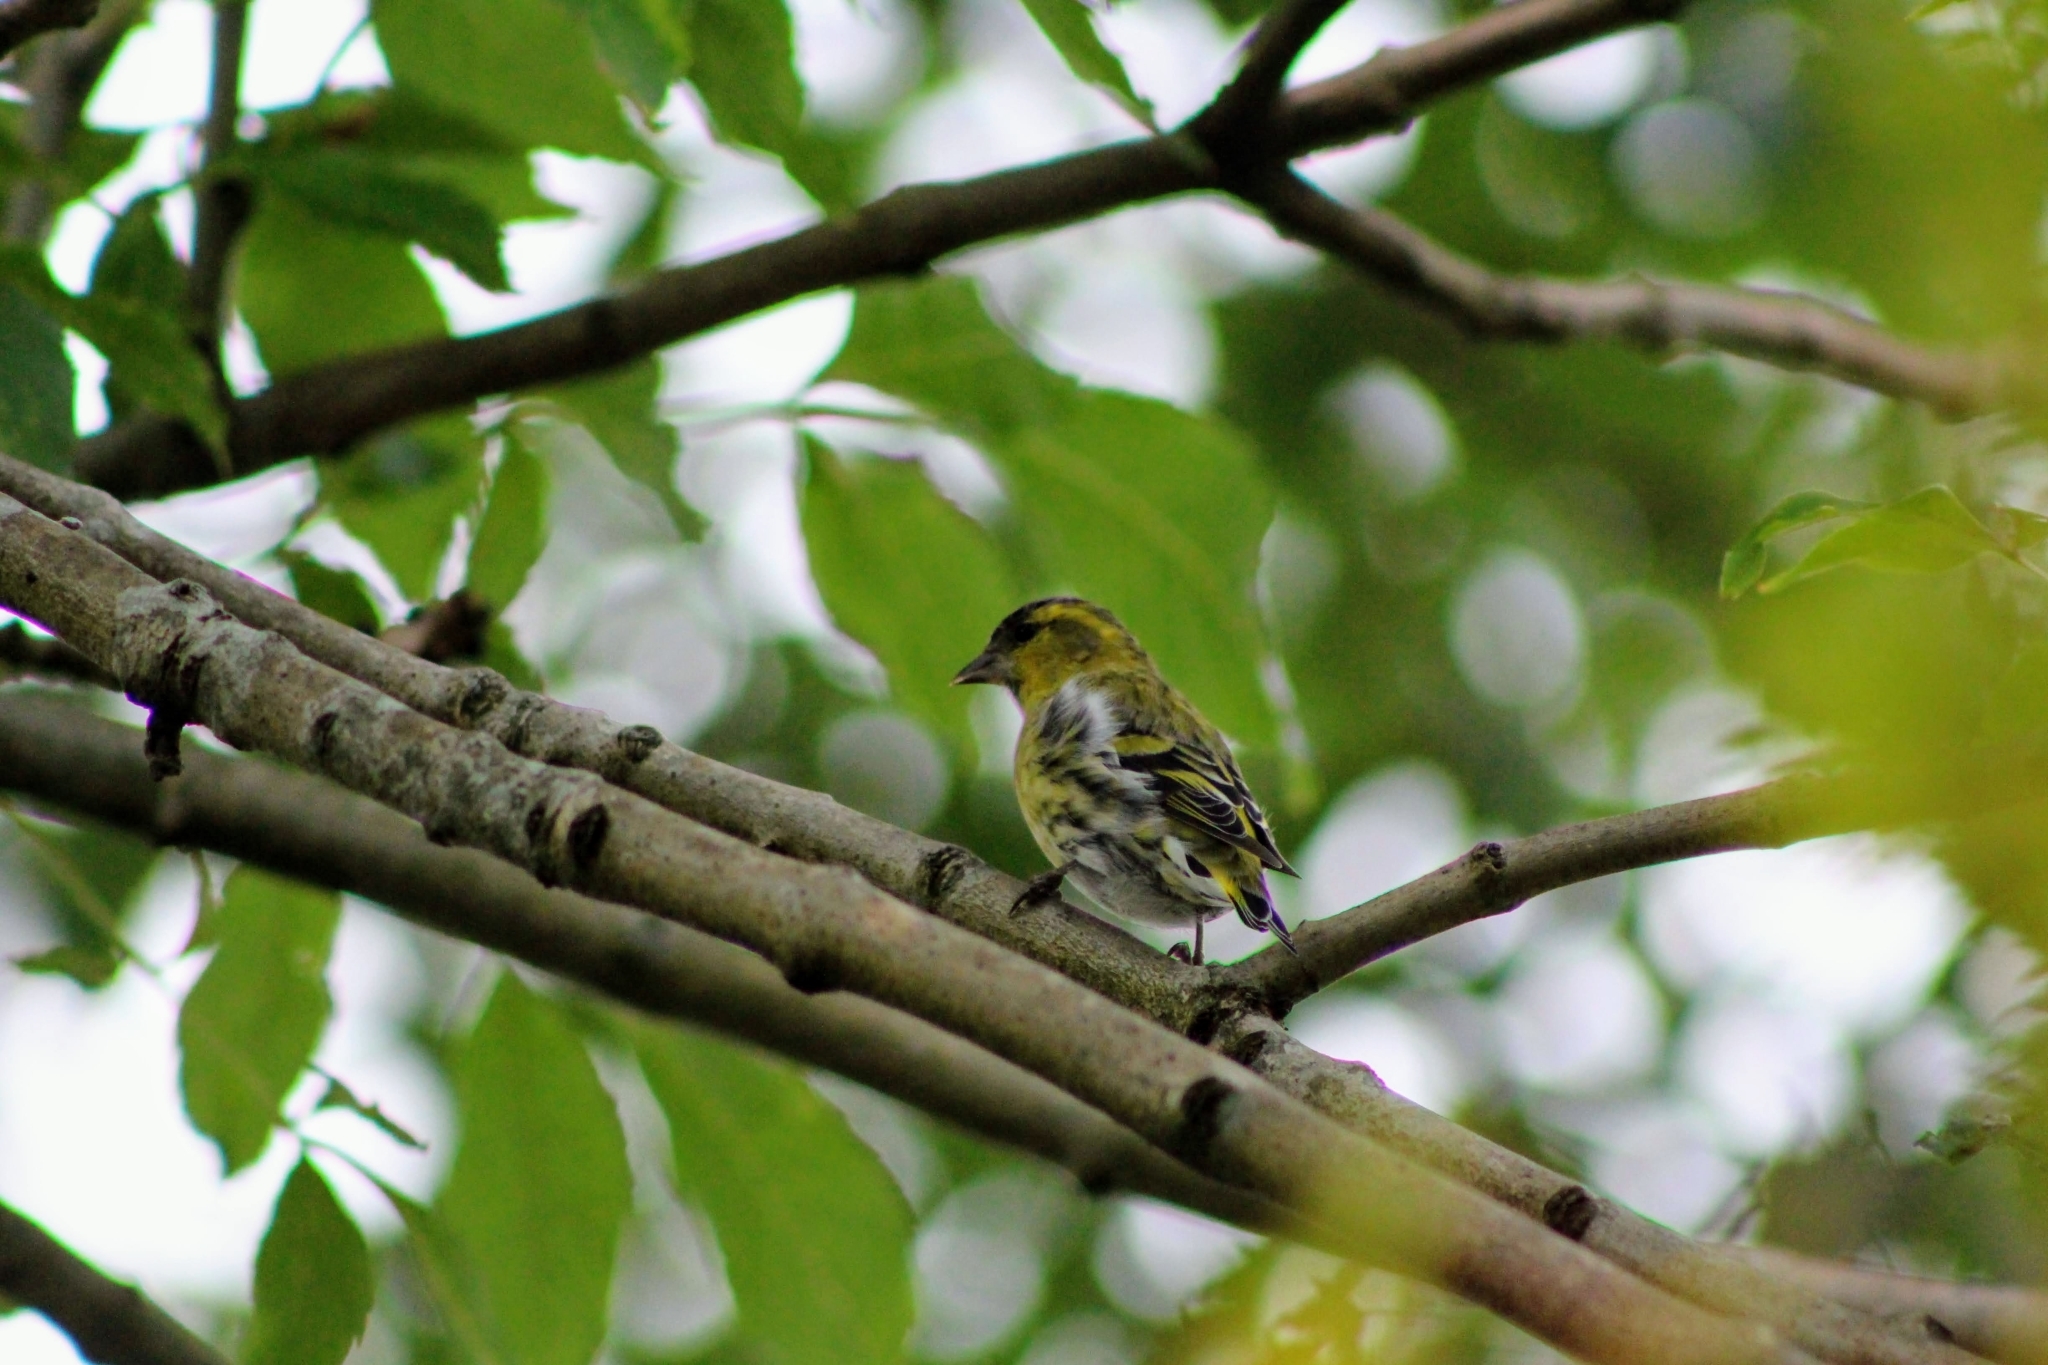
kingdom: Animalia
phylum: Chordata
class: Aves
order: Passeriformes
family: Fringillidae
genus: Spinus
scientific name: Spinus spinus
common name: Eurasian siskin
